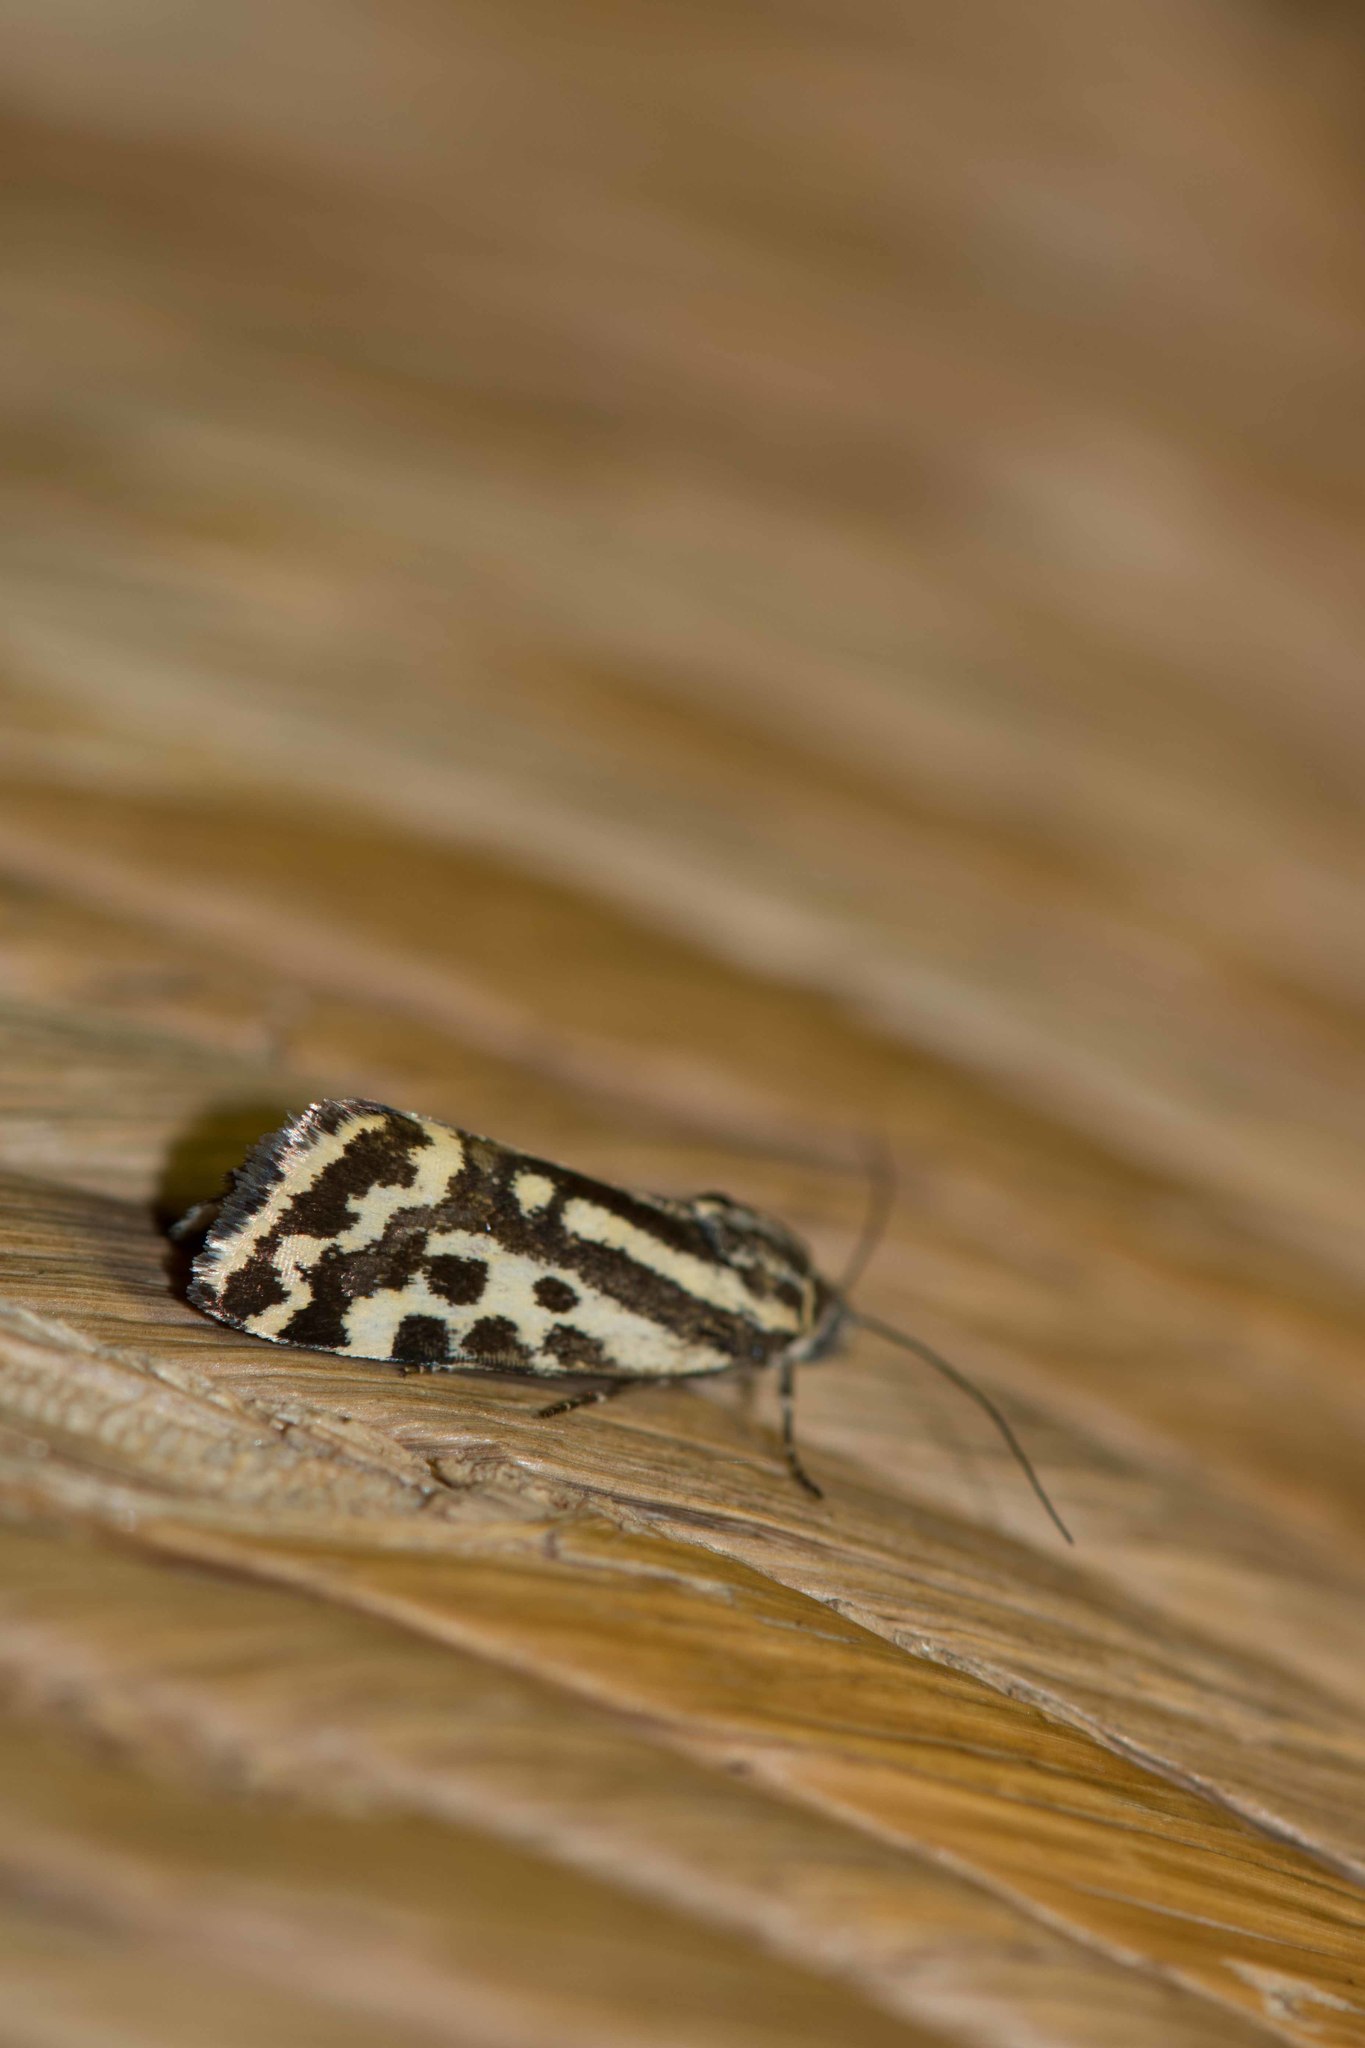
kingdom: Animalia
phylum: Arthropoda
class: Insecta
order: Lepidoptera
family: Noctuidae
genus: Acontia
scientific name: Acontia trabealis
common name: Spotted sulphur
